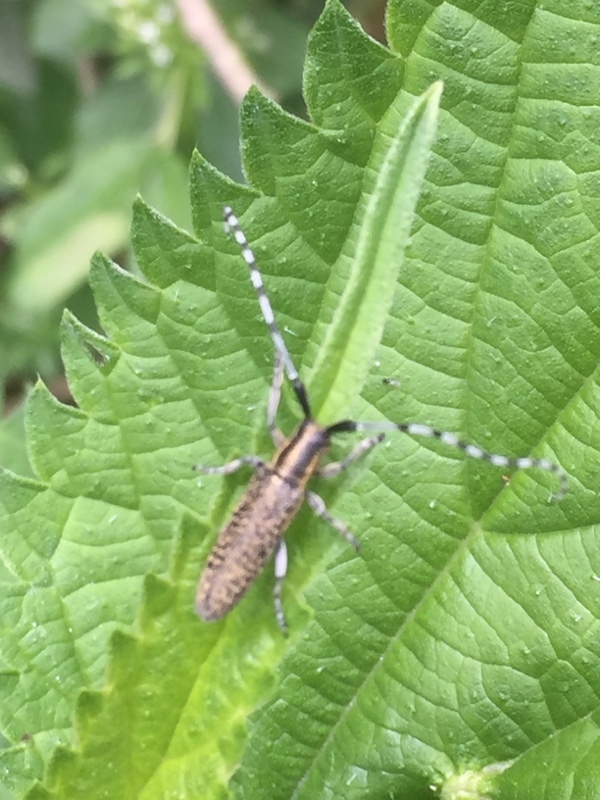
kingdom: Animalia
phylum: Arthropoda
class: Insecta
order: Coleoptera
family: Cerambycidae
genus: Agapanthia
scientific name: Agapanthia villosoviridescens
